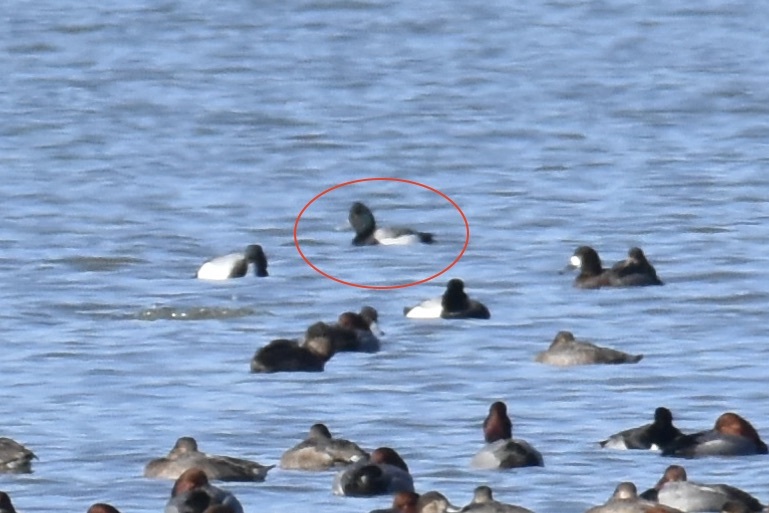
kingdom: Animalia
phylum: Chordata
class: Aves
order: Anseriformes
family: Anatidae
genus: Aythya
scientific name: Aythya affinis
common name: Lesser scaup
